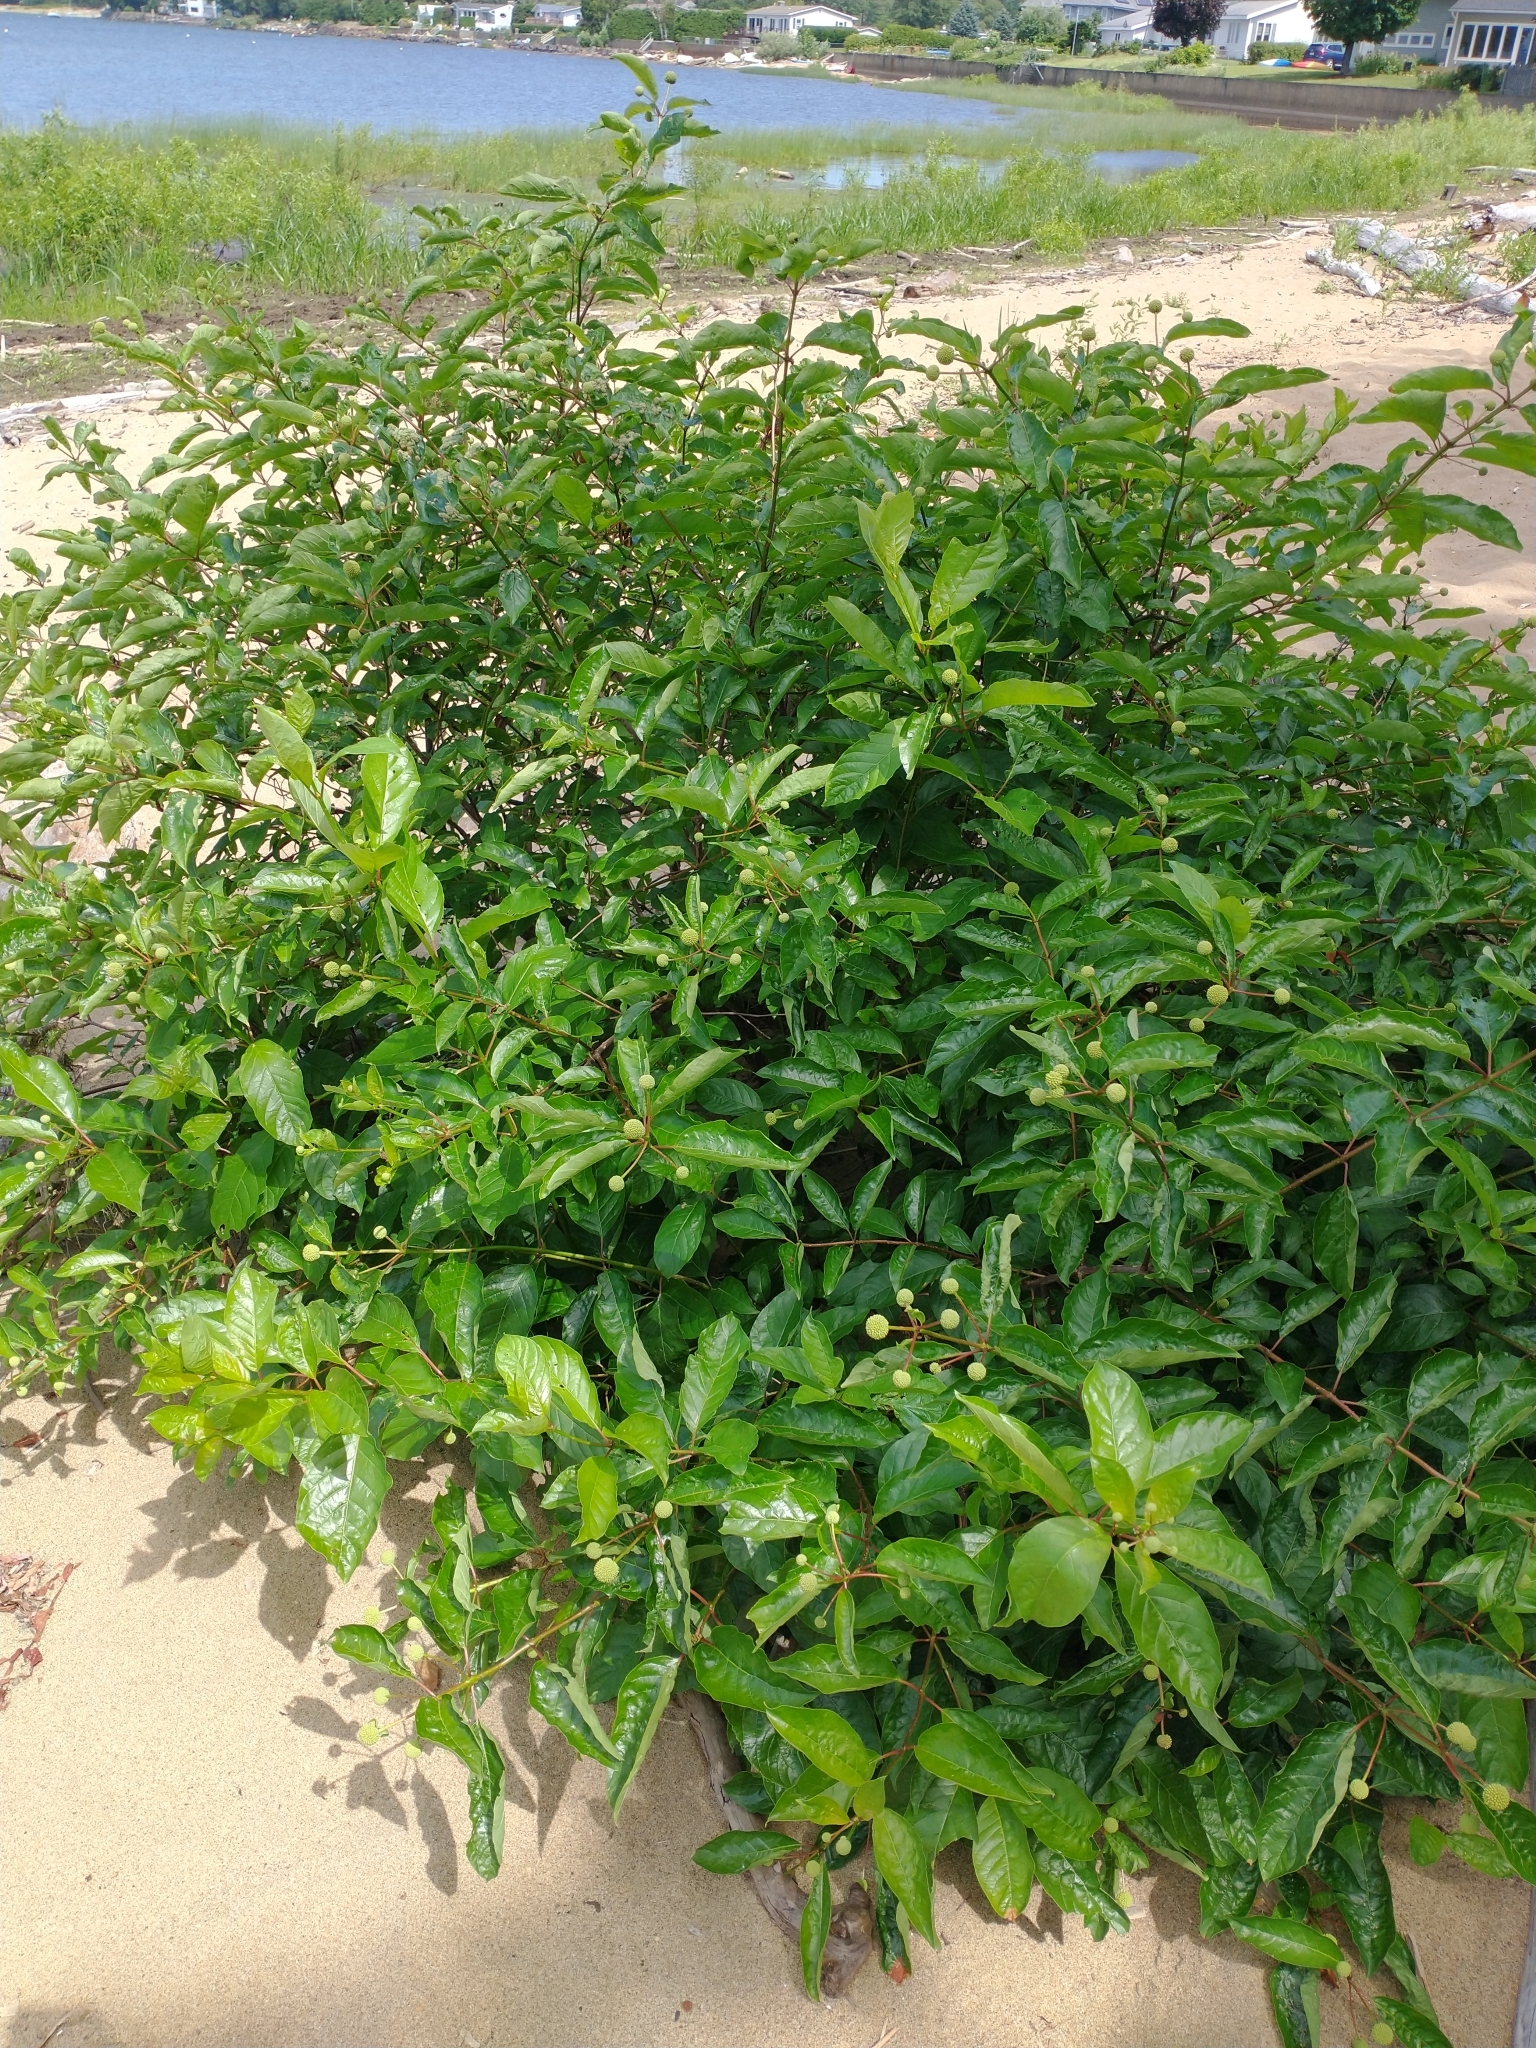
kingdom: Plantae
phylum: Tracheophyta
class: Magnoliopsida
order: Gentianales
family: Rubiaceae
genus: Cephalanthus
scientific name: Cephalanthus occidentalis
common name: Button-willow
